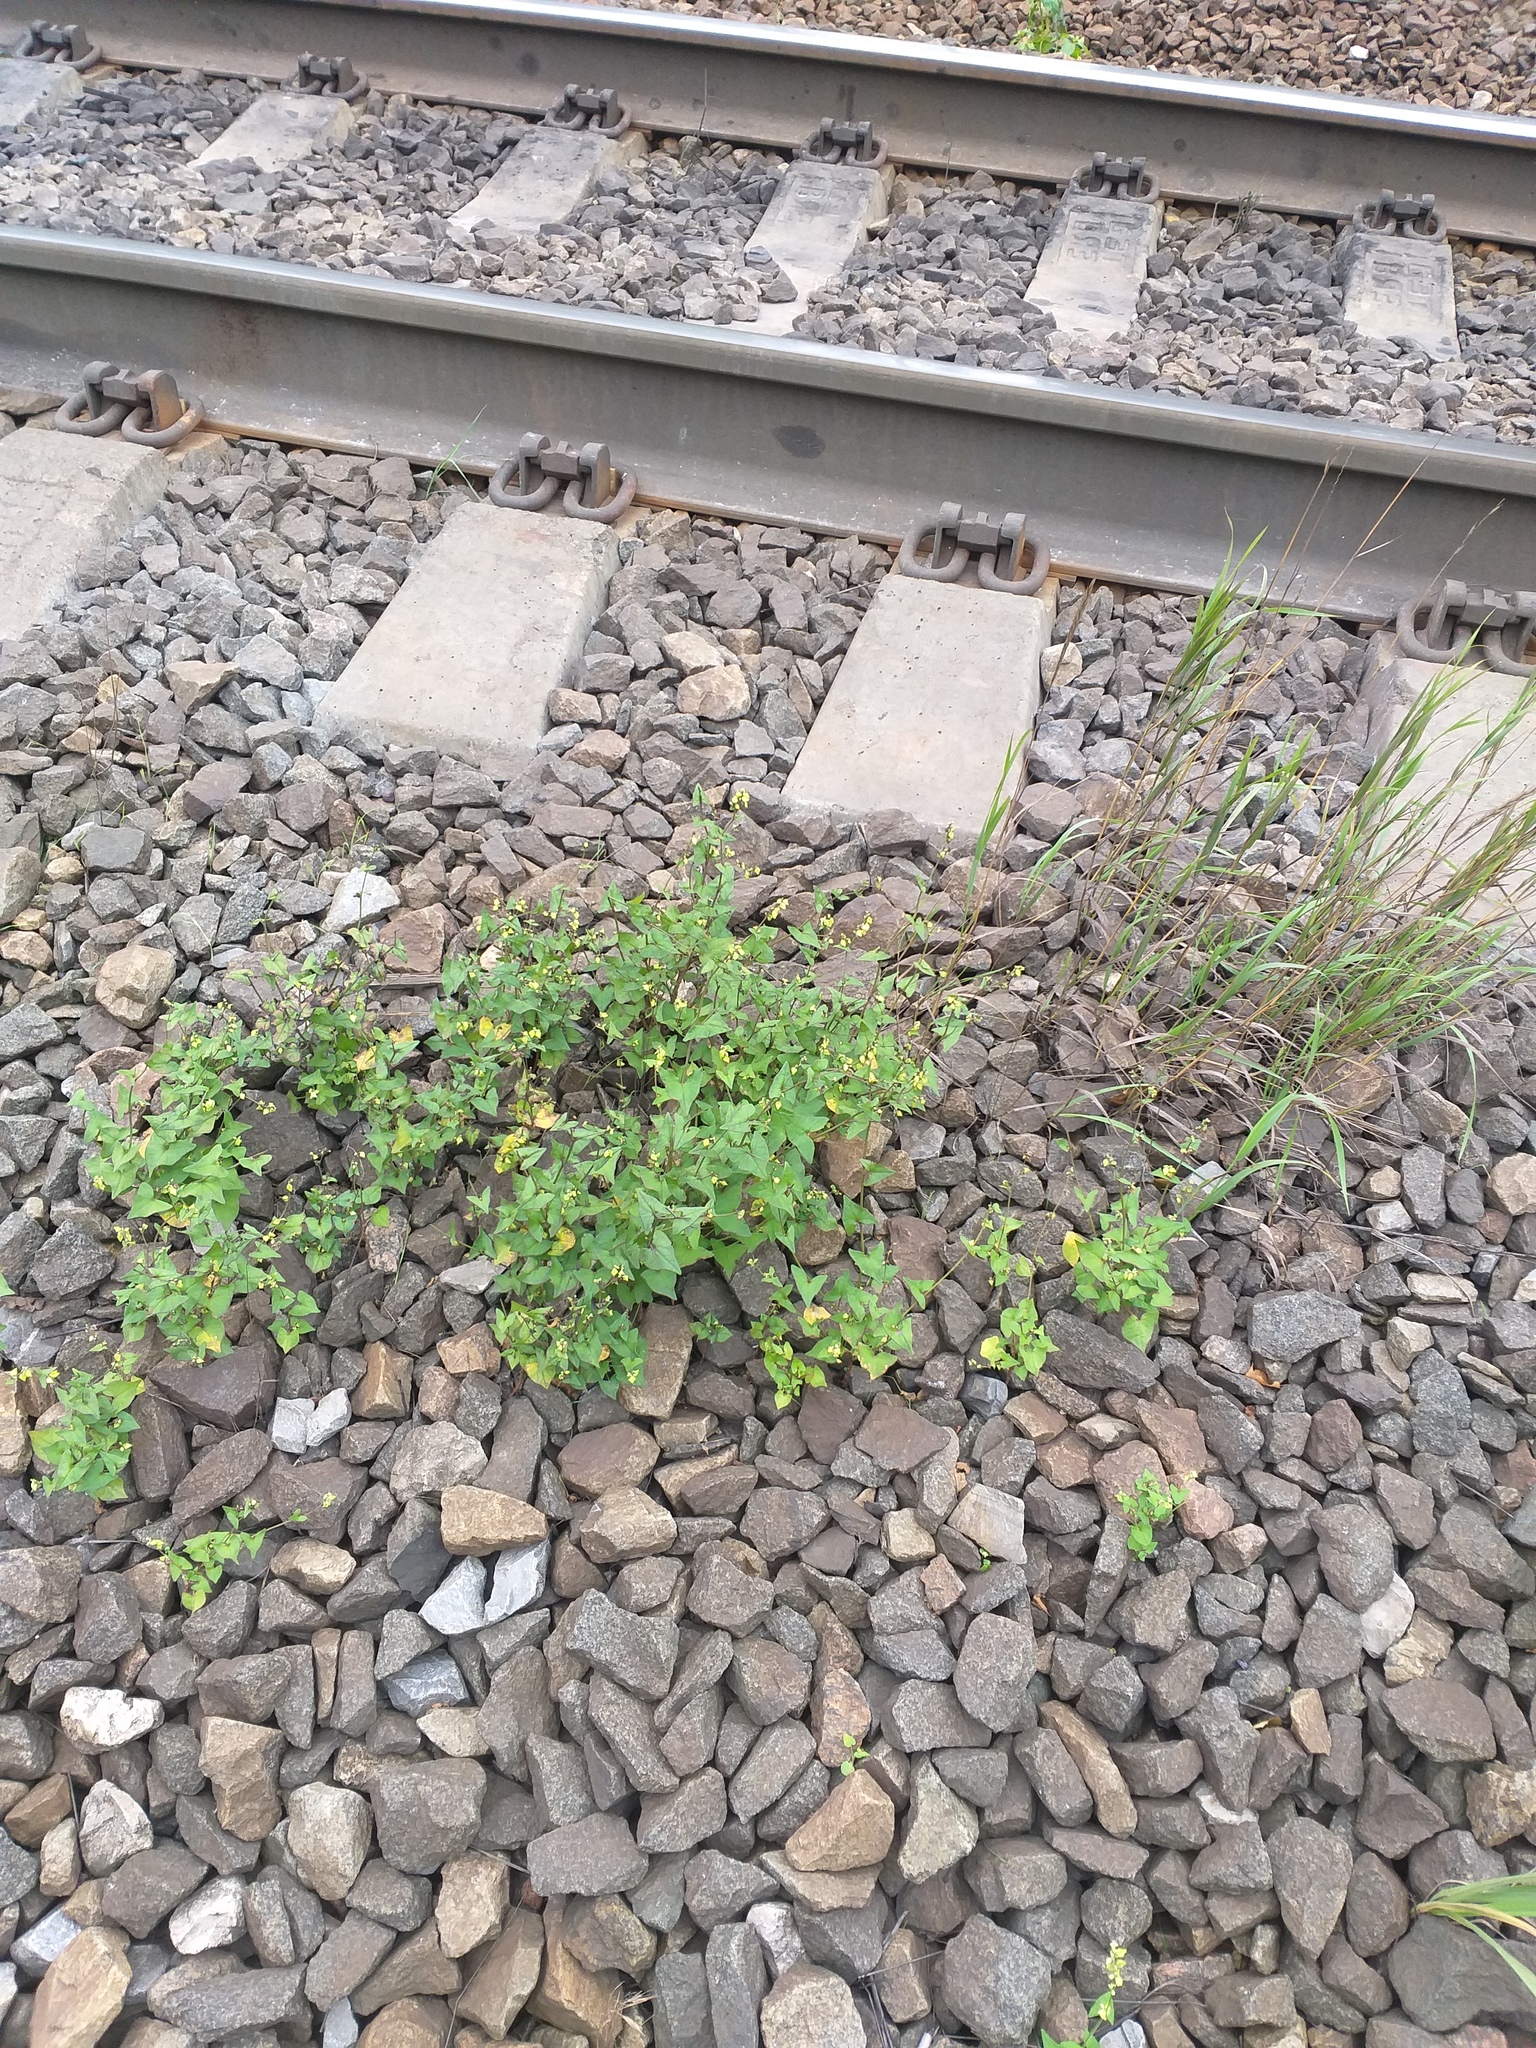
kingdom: Plantae
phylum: Tracheophyta
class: Magnoliopsida
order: Caryophyllales
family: Polygonaceae
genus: Fagopyrum
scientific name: Fagopyrum tataricum
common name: Green buckwheat
